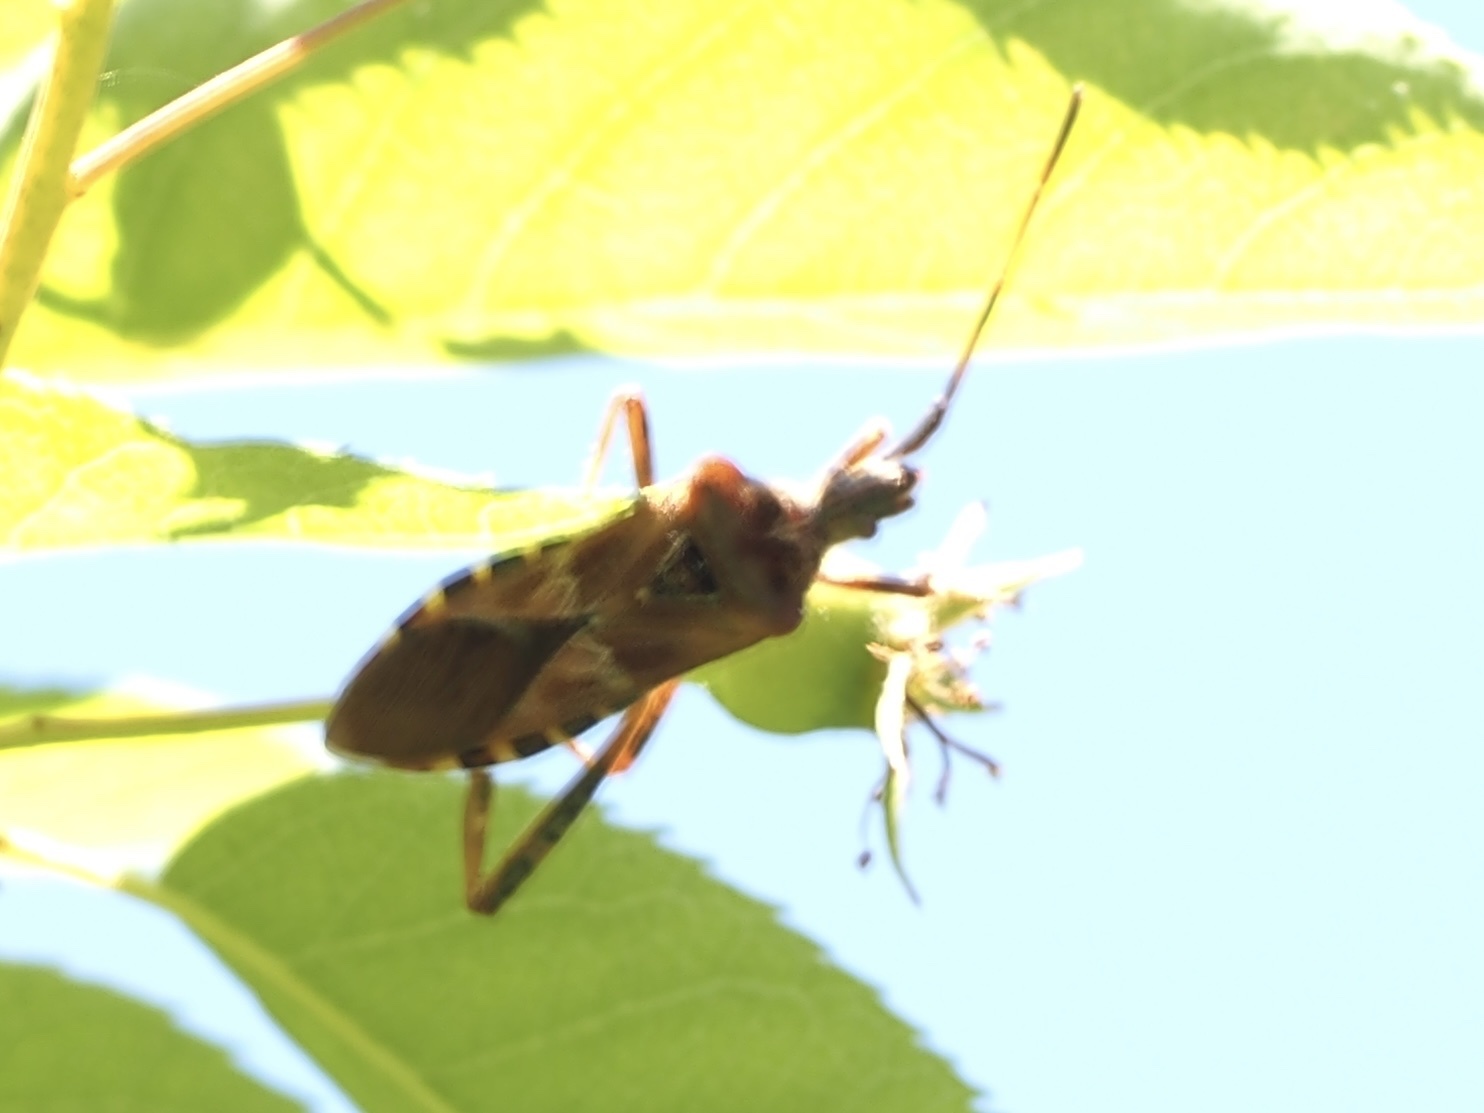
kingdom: Animalia
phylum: Arthropoda
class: Insecta
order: Hemiptera
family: Coreidae
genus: Leptoglossus
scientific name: Leptoglossus occidentalis
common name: Western conifer-seed bug
